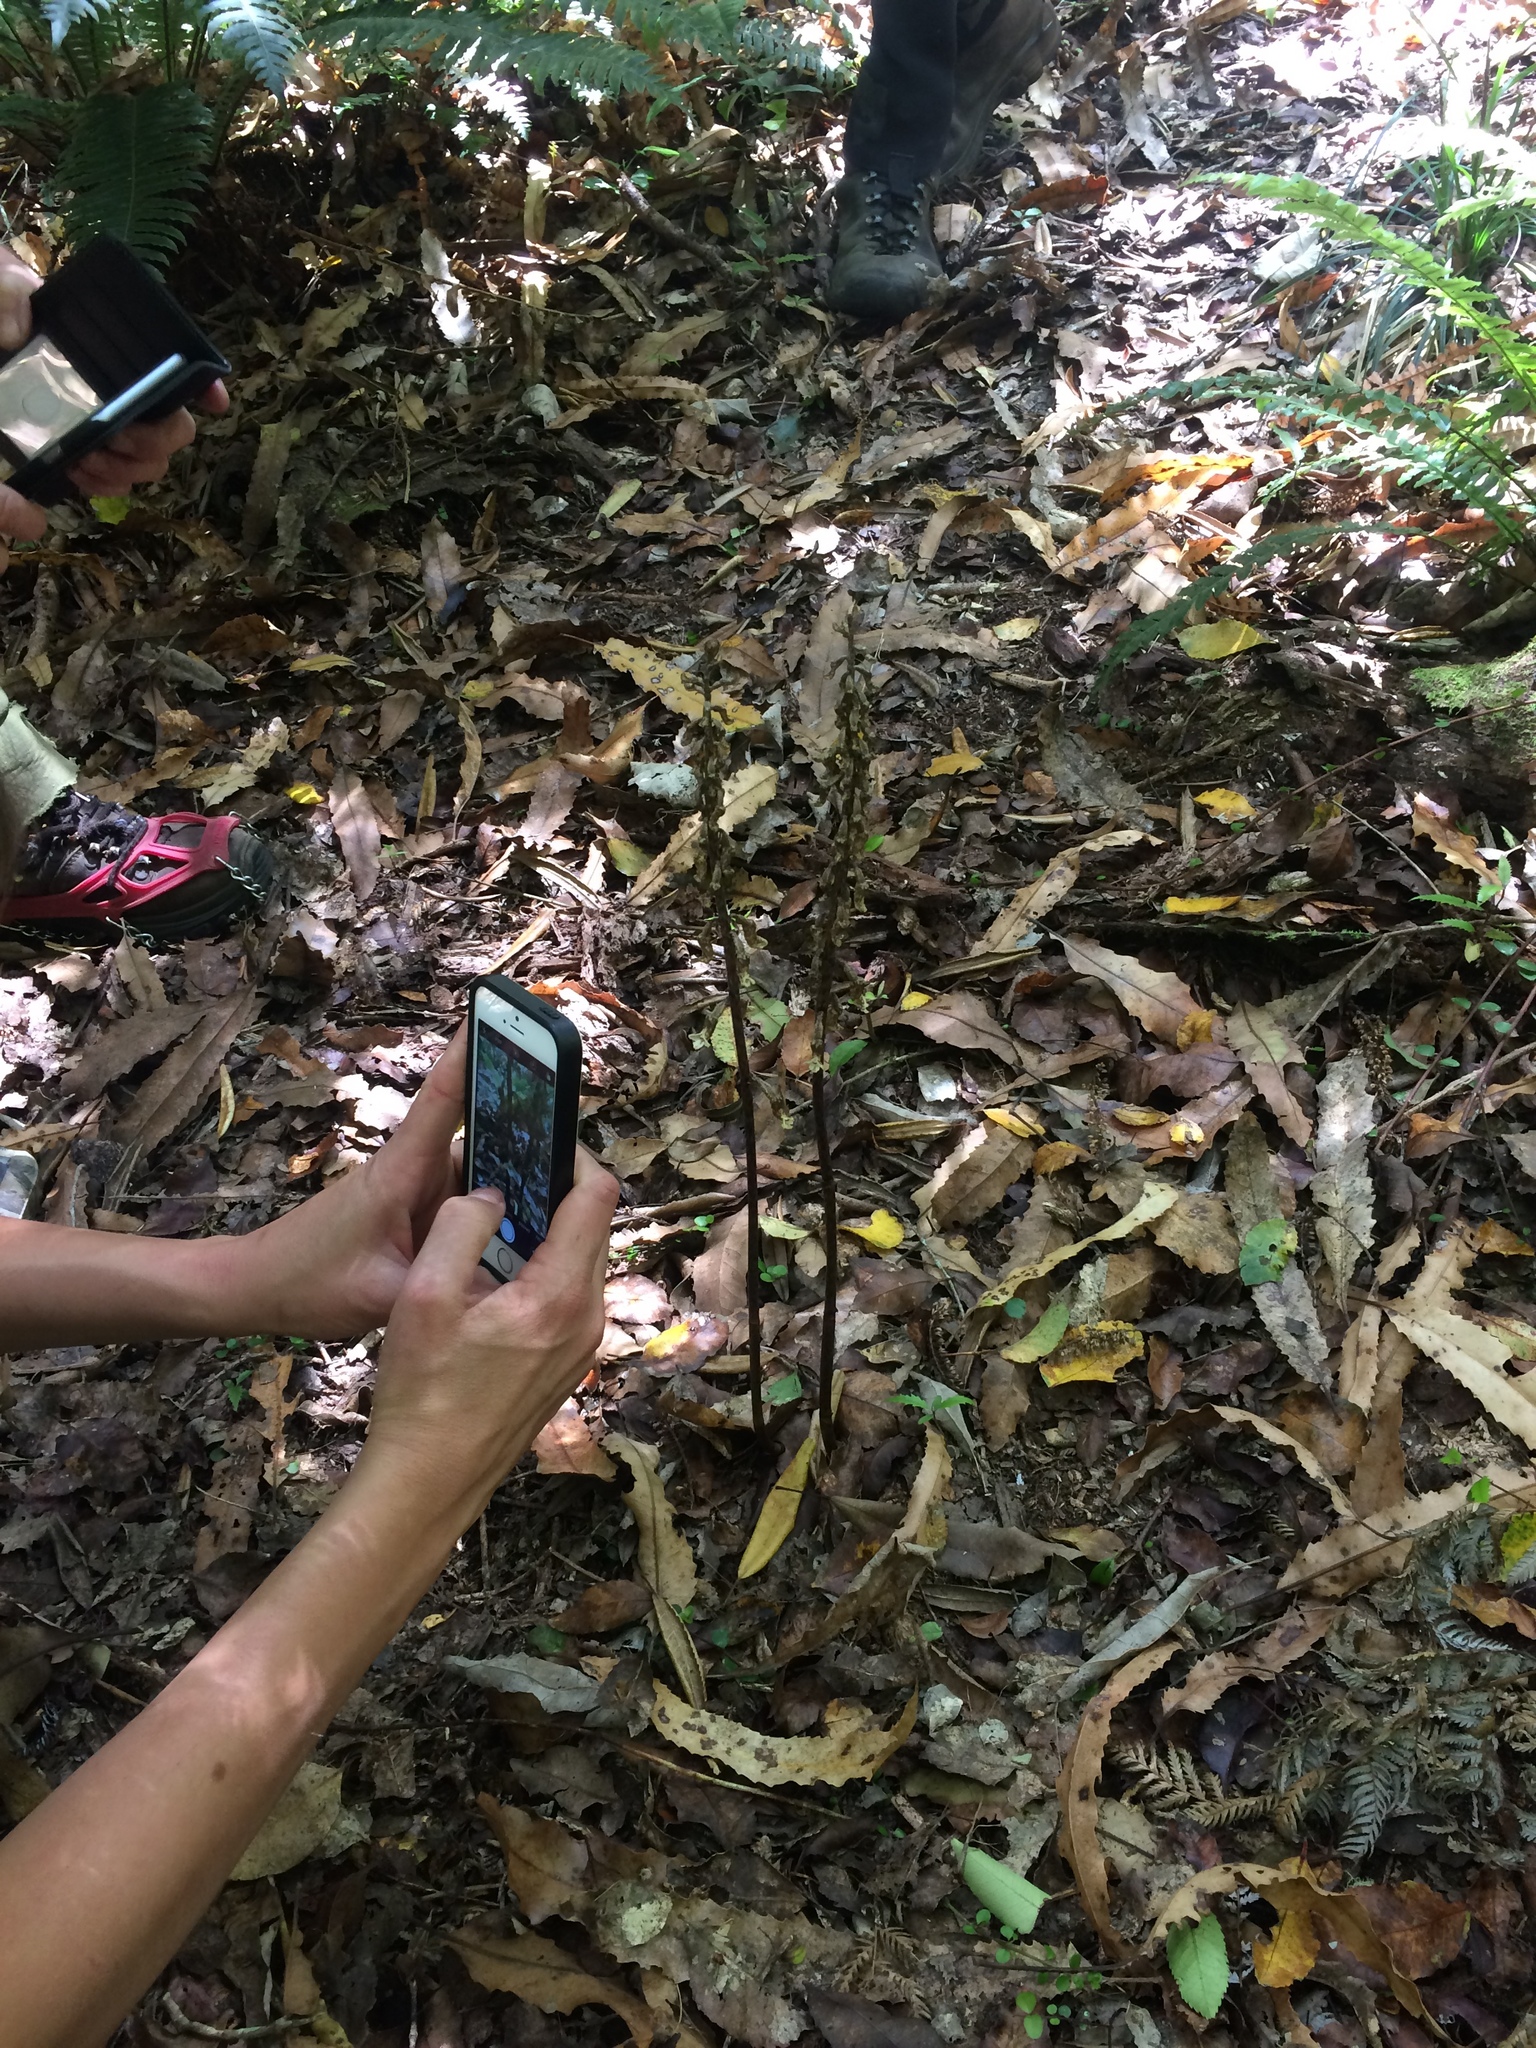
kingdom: Plantae
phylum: Tracheophyta
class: Liliopsida
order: Asparagales
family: Orchidaceae
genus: Gastrodia
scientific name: Gastrodia cunninghamii
